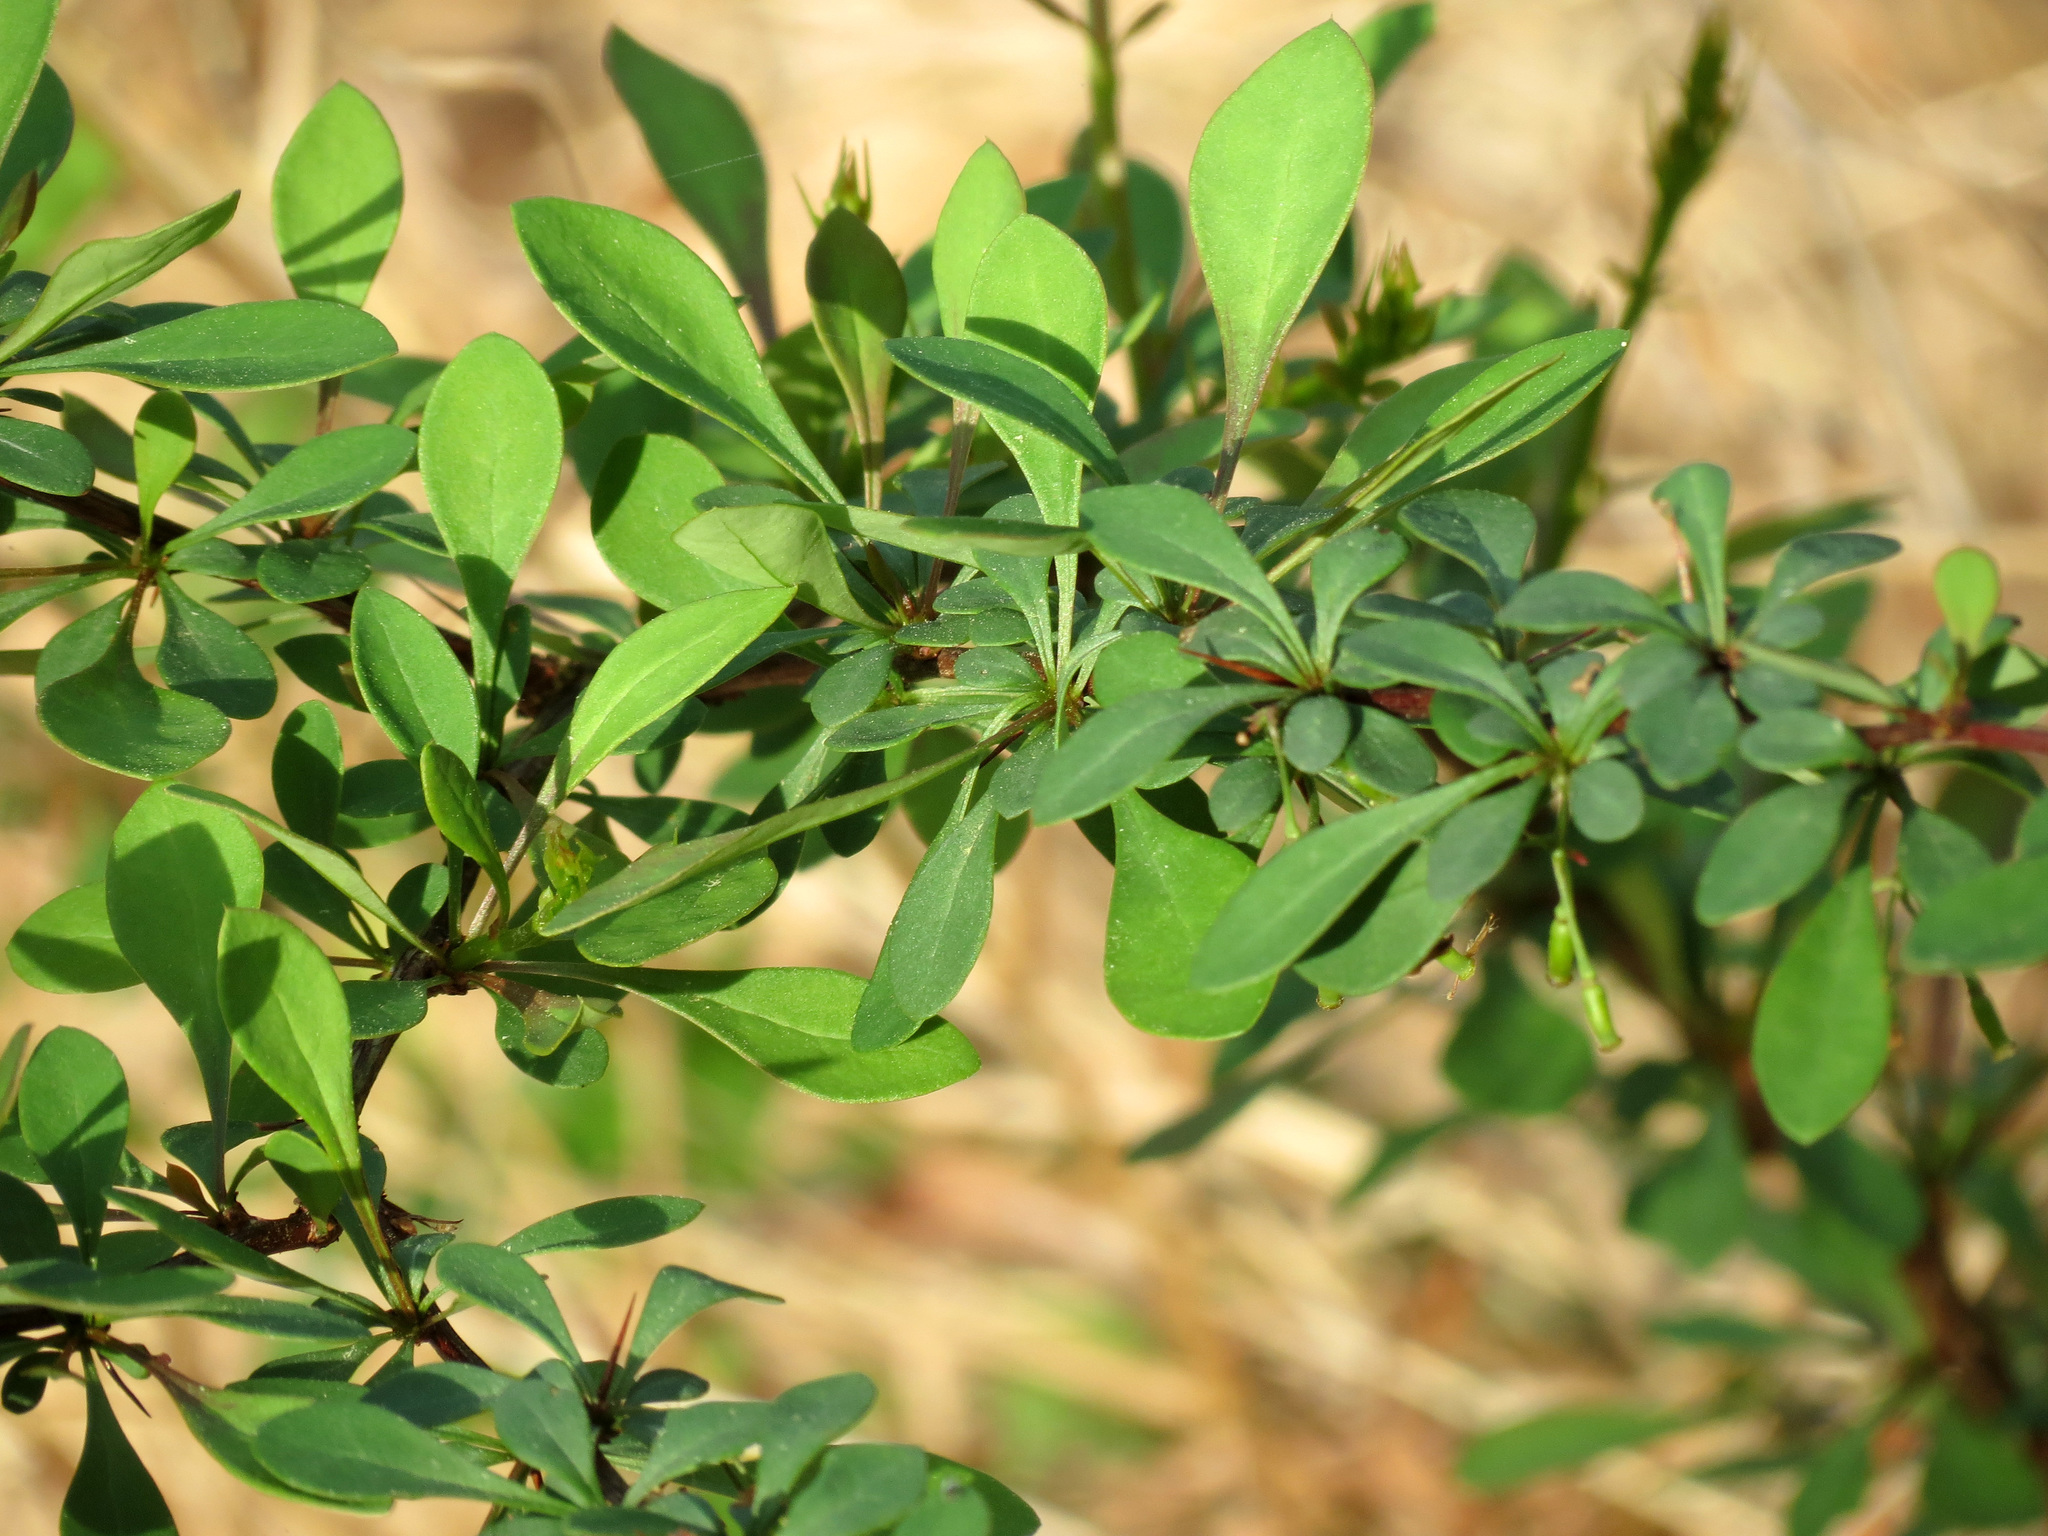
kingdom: Plantae
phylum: Tracheophyta
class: Magnoliopsida
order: Ranunculales
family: Berberidaceae
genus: Berberis
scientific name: Berberis thunbergii
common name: Japanese barberry
